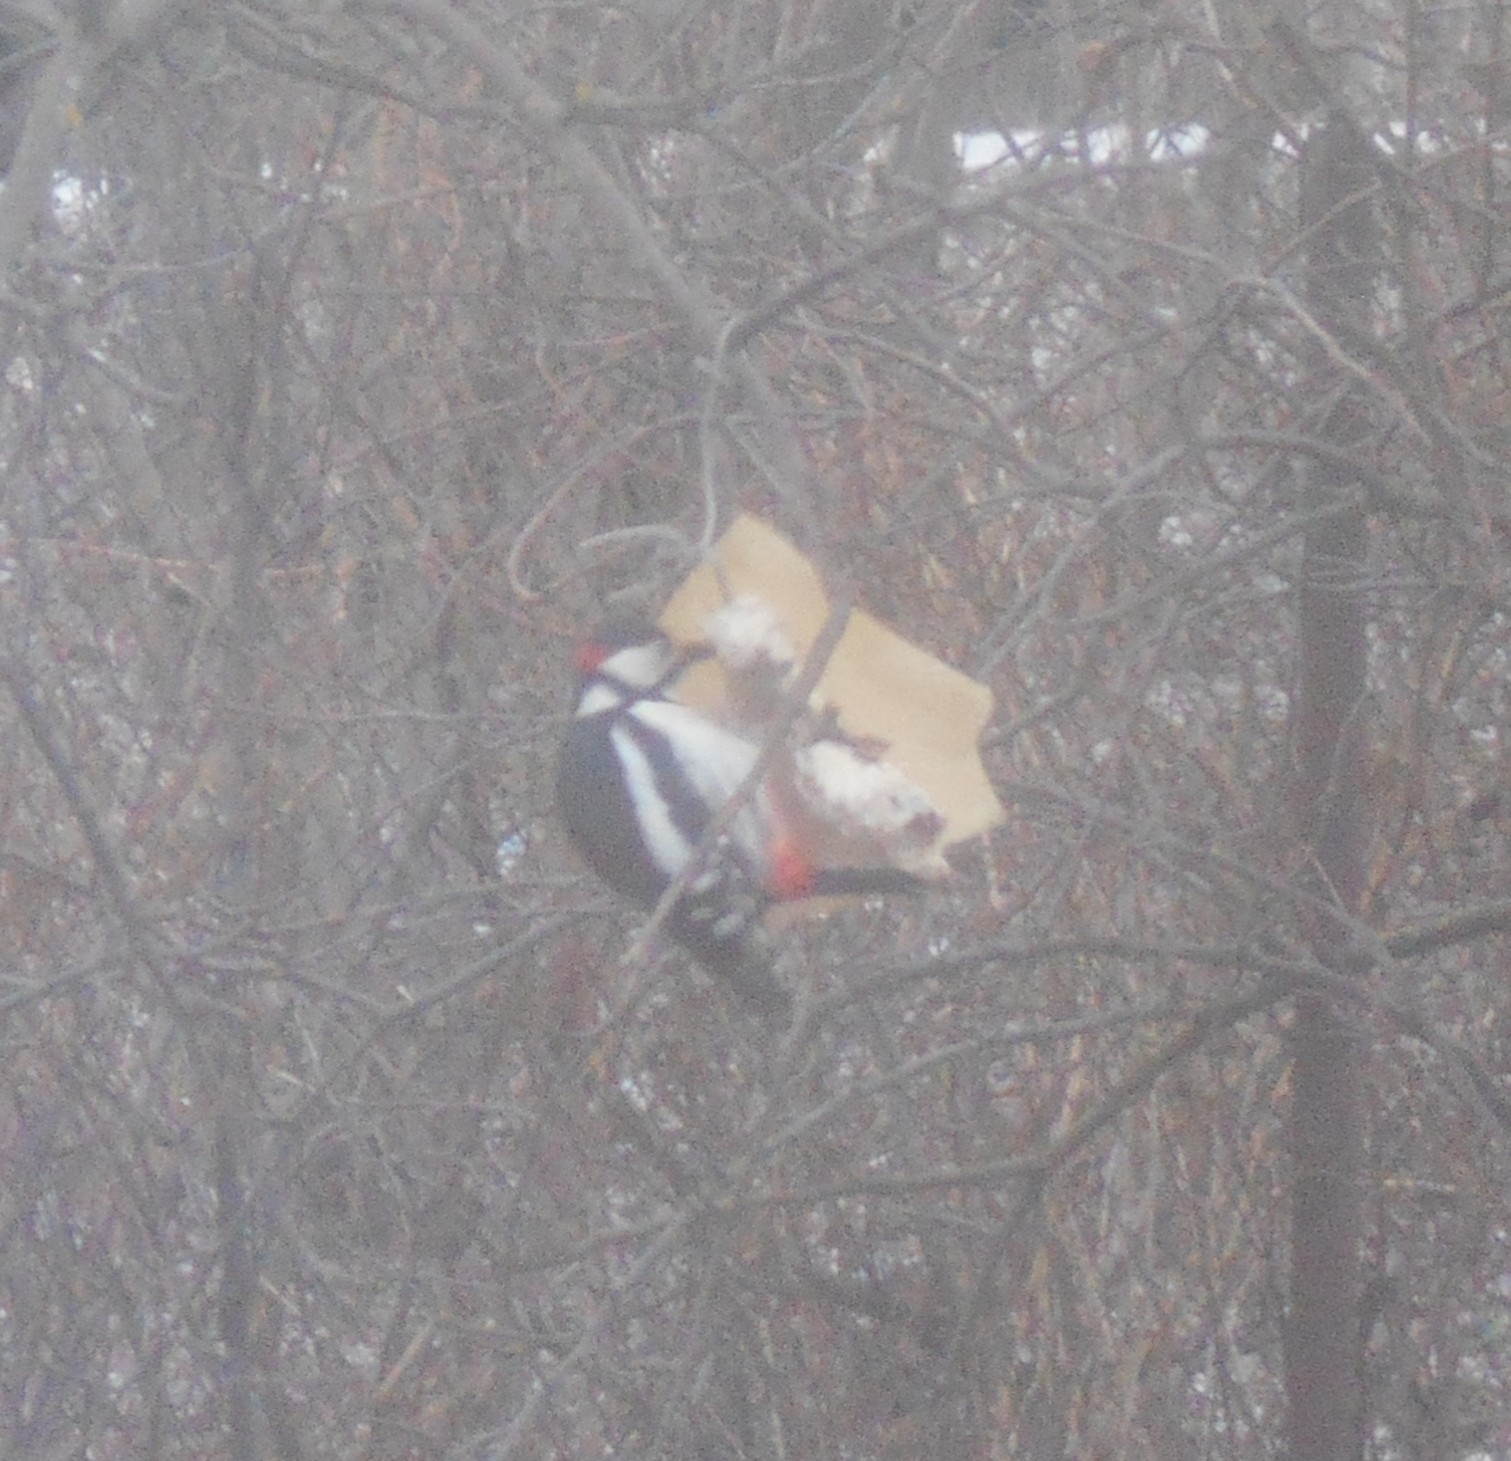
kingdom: Animalia
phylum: Chordata
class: Aves
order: Piciformes
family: Picidae
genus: Dendrocopos
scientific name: Dendrocopos major
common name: Great spotted woodpecker
